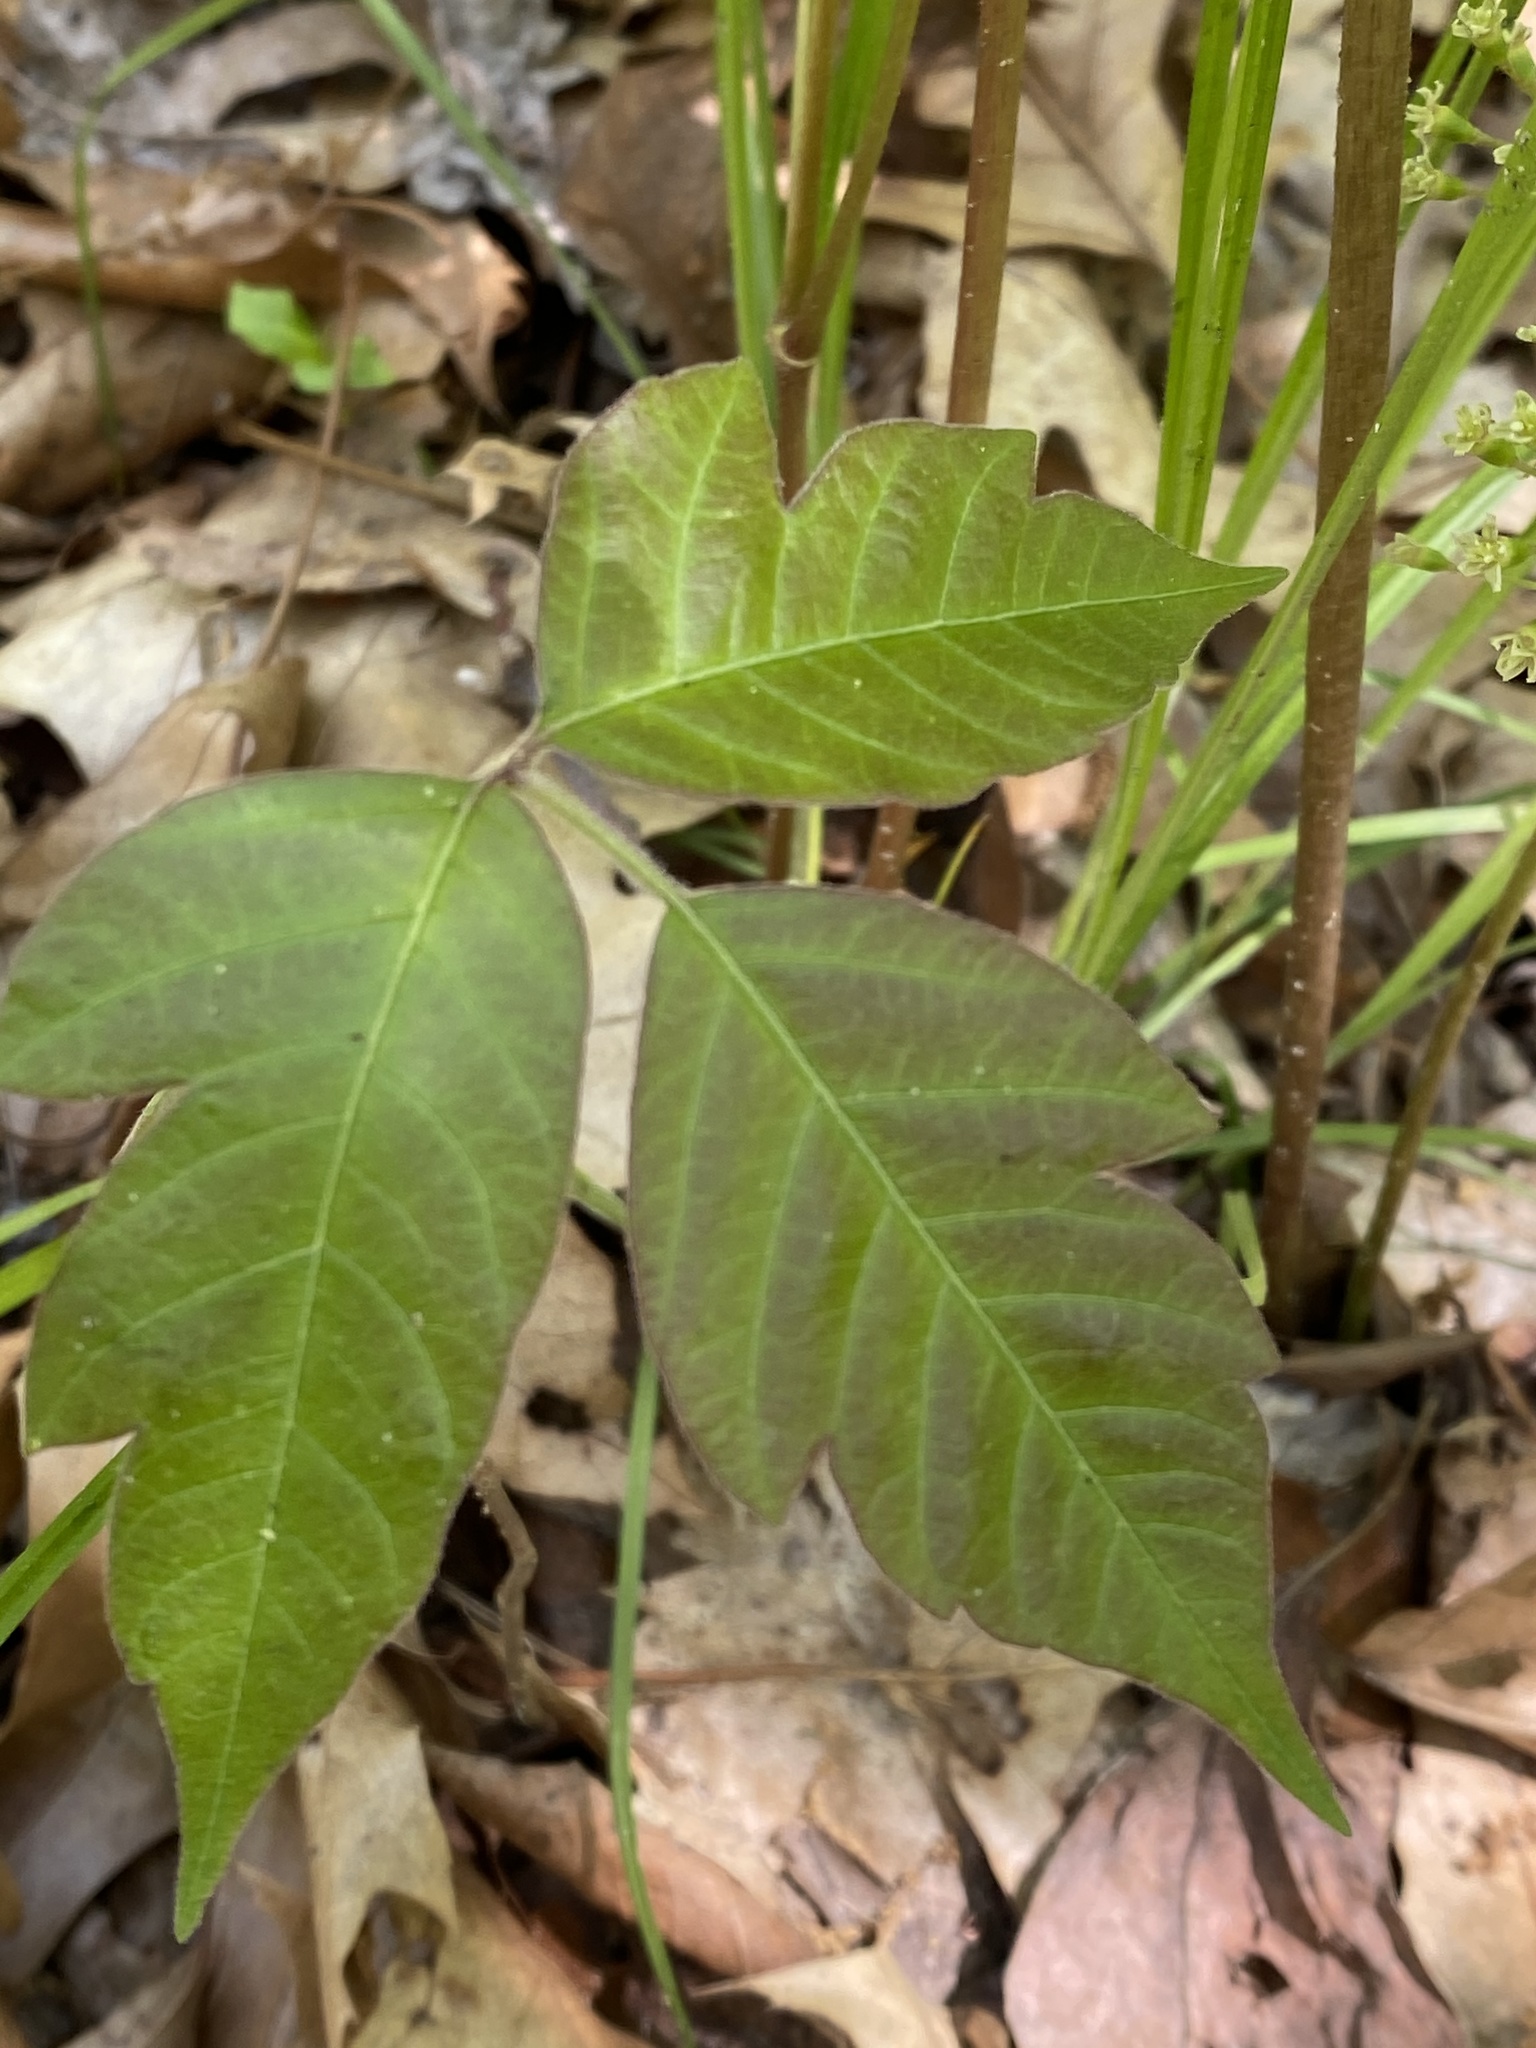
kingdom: Plantae
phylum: Tracheophyta
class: Magnoliopsida
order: Apiales
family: Araliaceae
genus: Aralia
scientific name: Aralia nudicaulis
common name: Wild sarsaparilla
